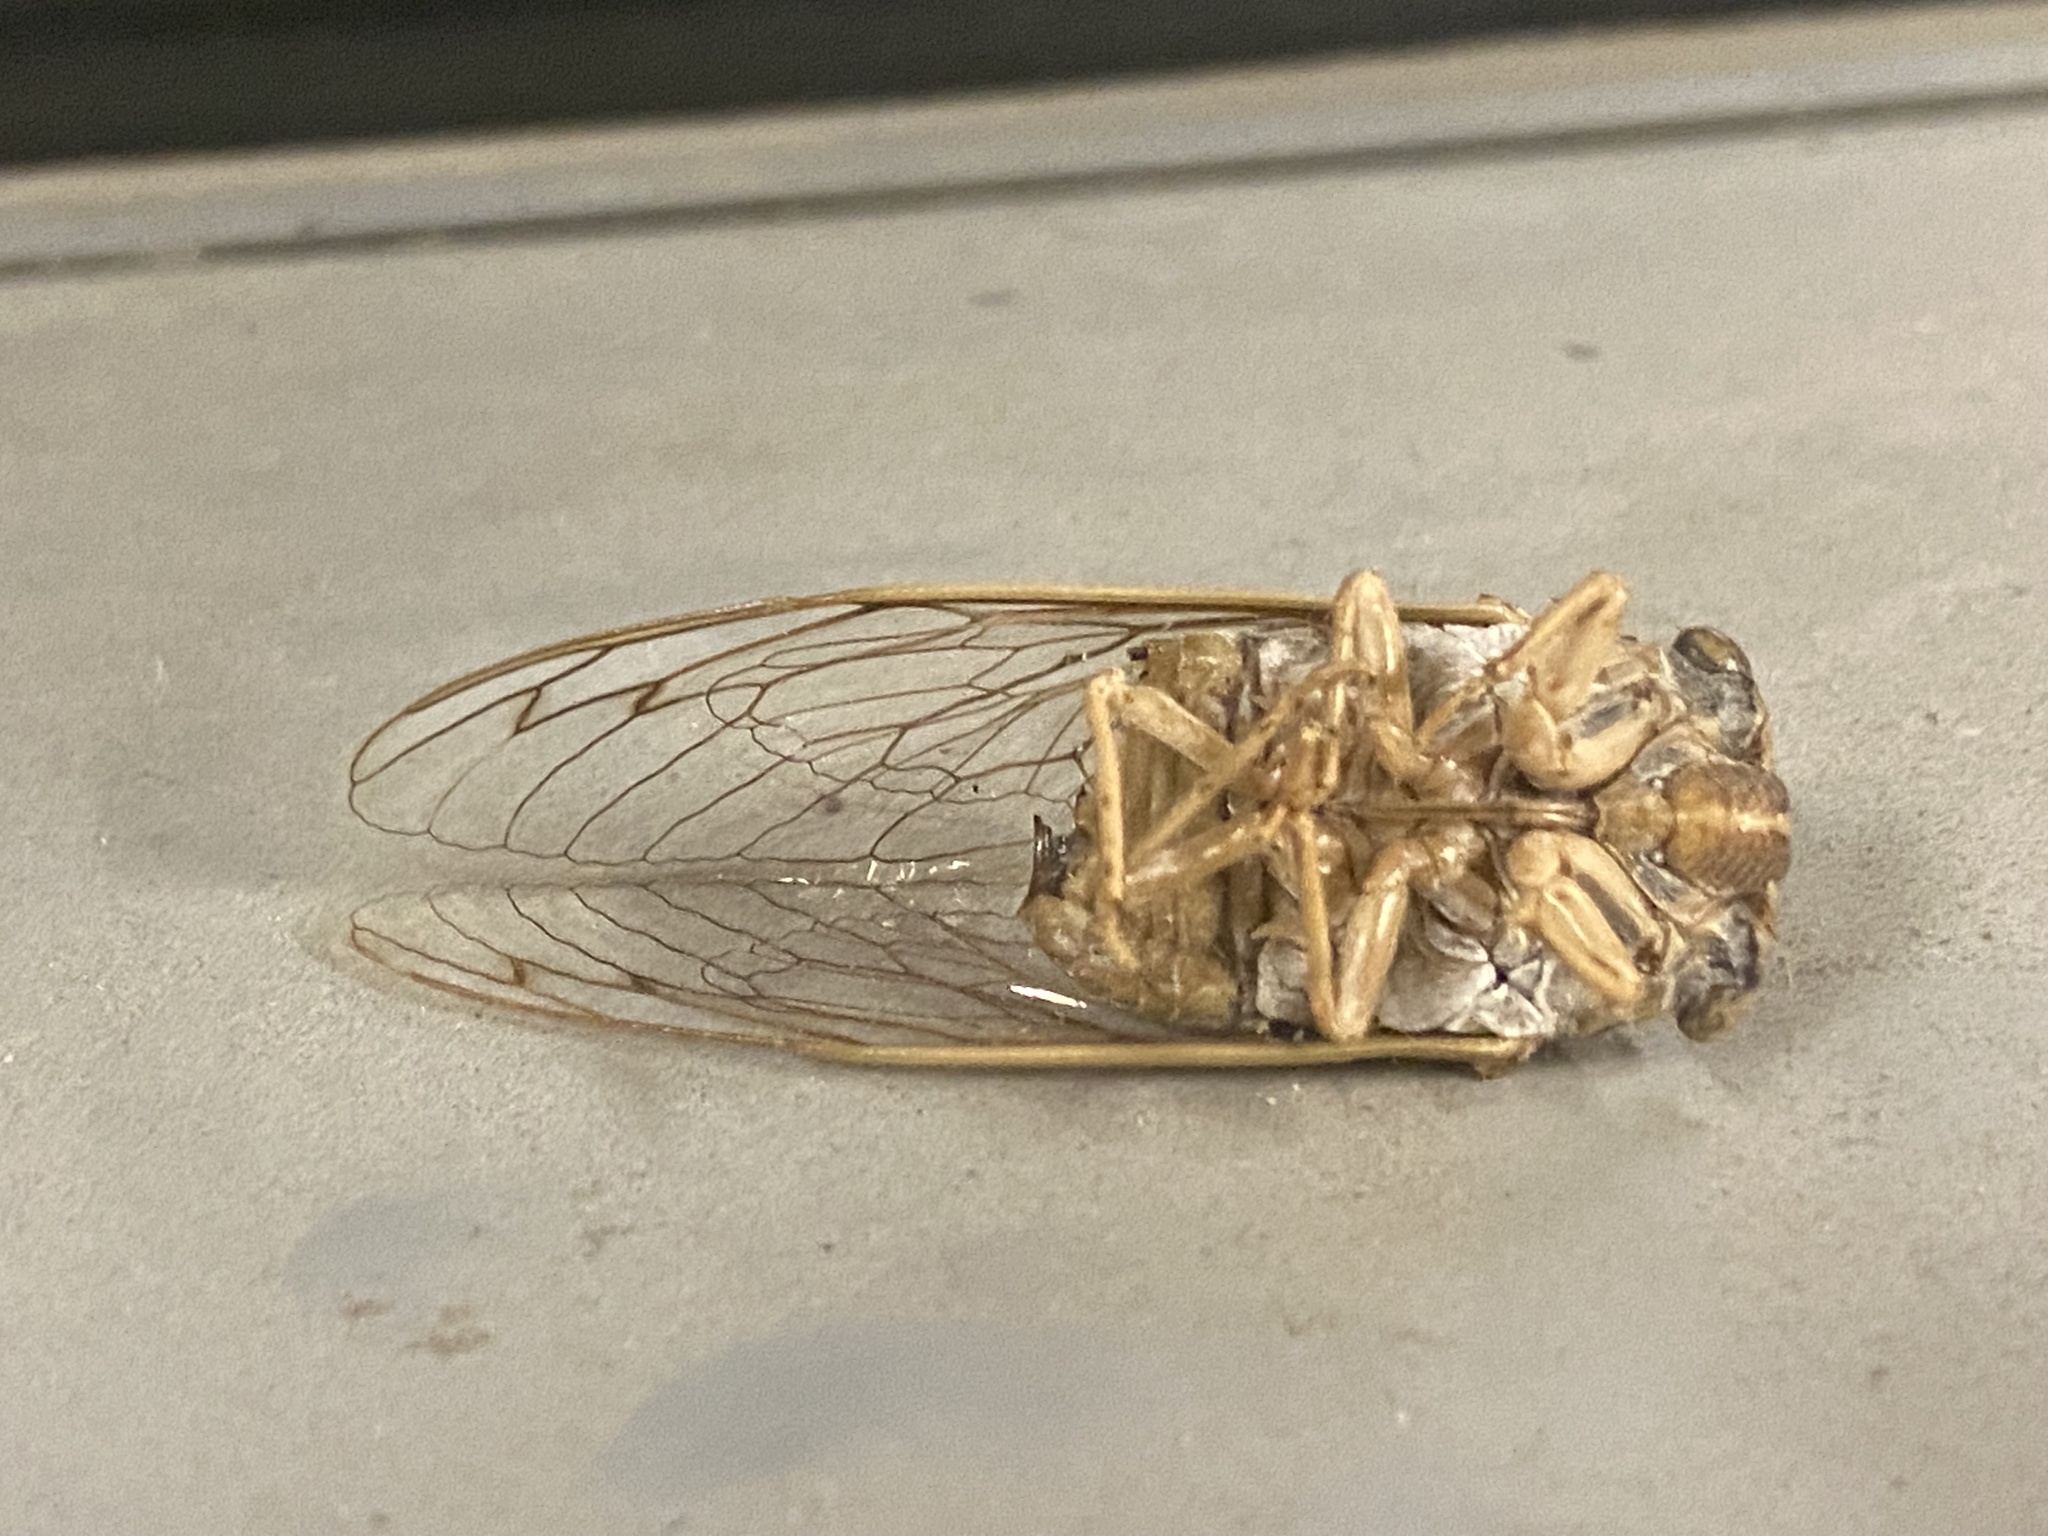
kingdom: Animalia
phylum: Arthropoda
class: Insecta
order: Hemiptera
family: Cicadidae
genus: Megatibicen
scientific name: Megatibicen resh
